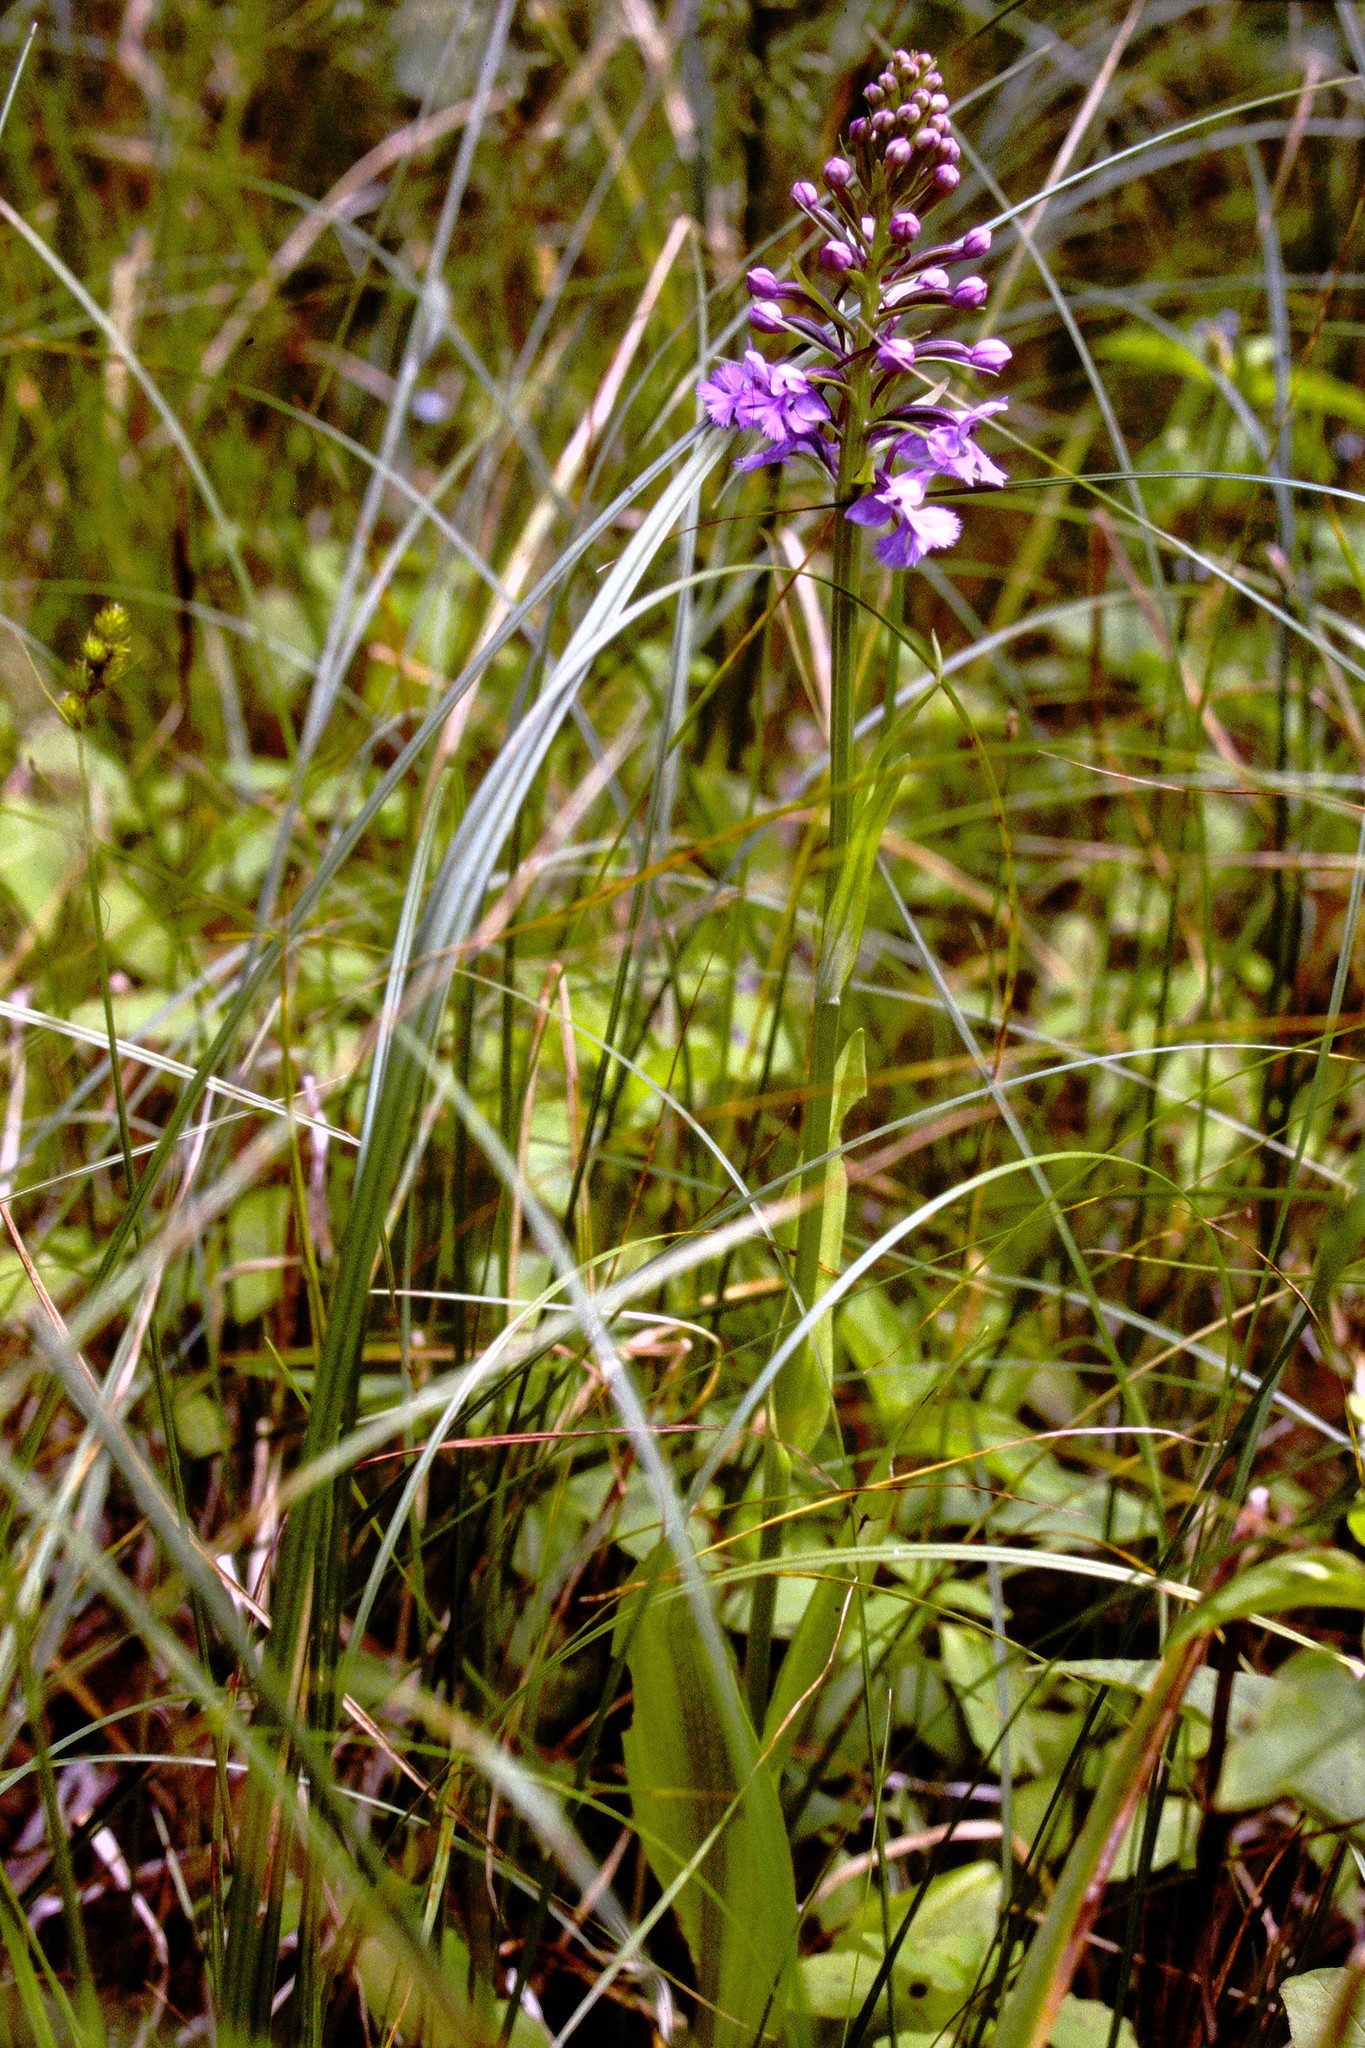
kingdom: Plantae
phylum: Tracheophyta
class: Liliopsida
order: Asparagales
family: Orchidaceae
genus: Platanthera
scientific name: Platanthera psycodes
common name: Lesser purple fringed orchid
